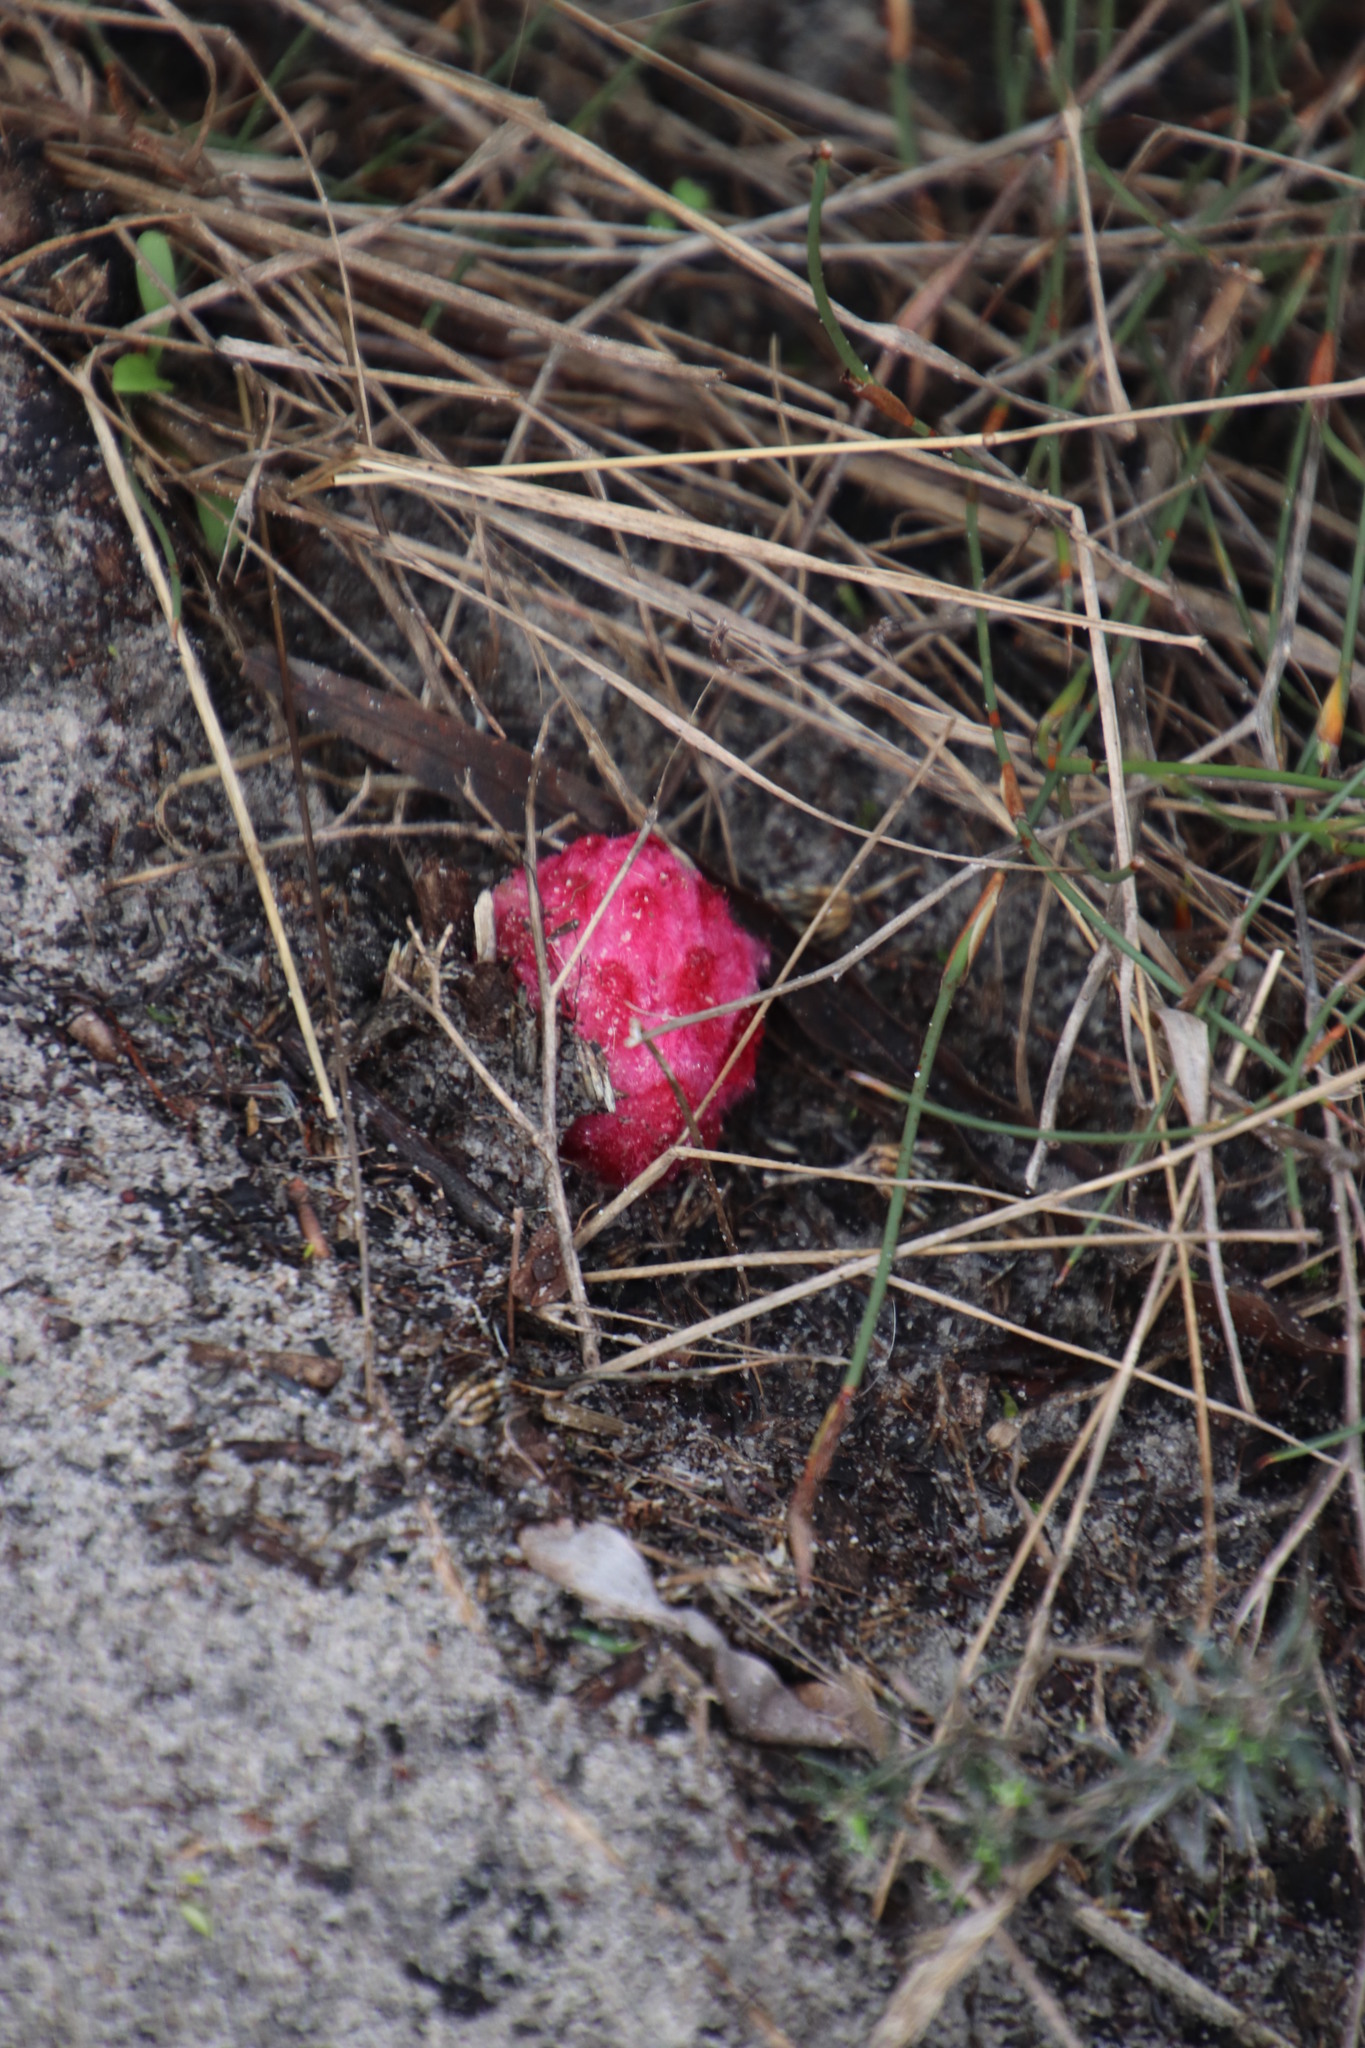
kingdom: Plantae
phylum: Tracheophyta
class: Magnoliopsida
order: Lamiales
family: Orobanchaceae
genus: Hyobanche
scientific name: Hyobanche sanguinea
